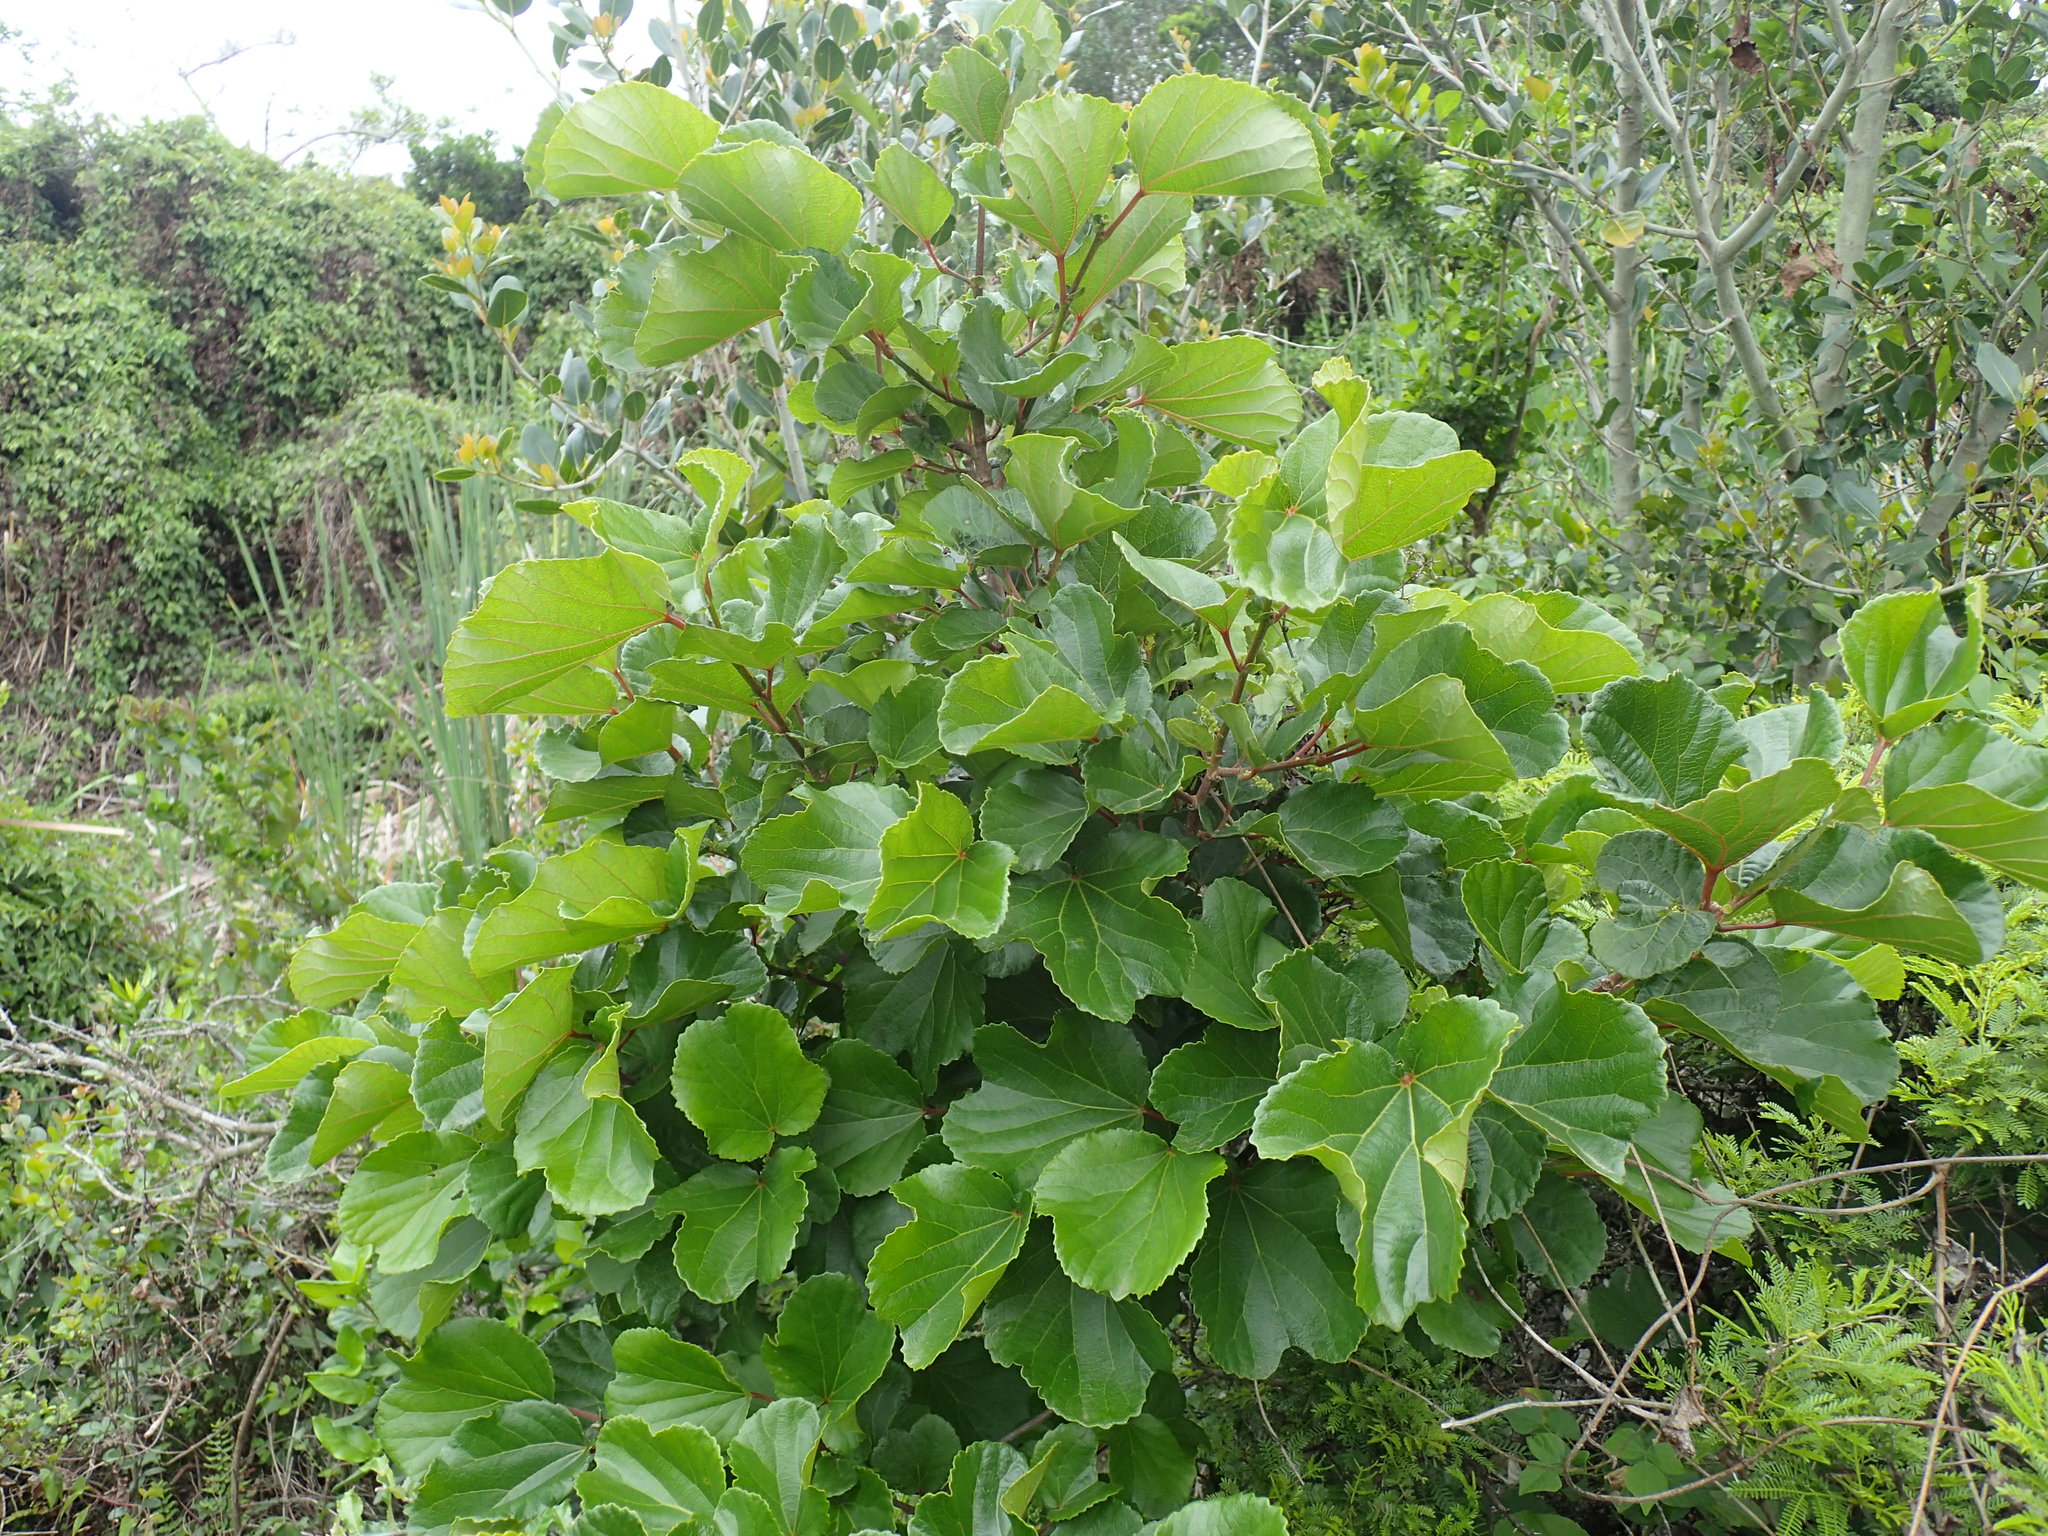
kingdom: Plantae
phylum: Tracheophyta
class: Magnoliopsida
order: Malpighiales
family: Salicaceae
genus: Trimeria
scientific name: Trimeria grandifolia
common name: Wild mulberry
